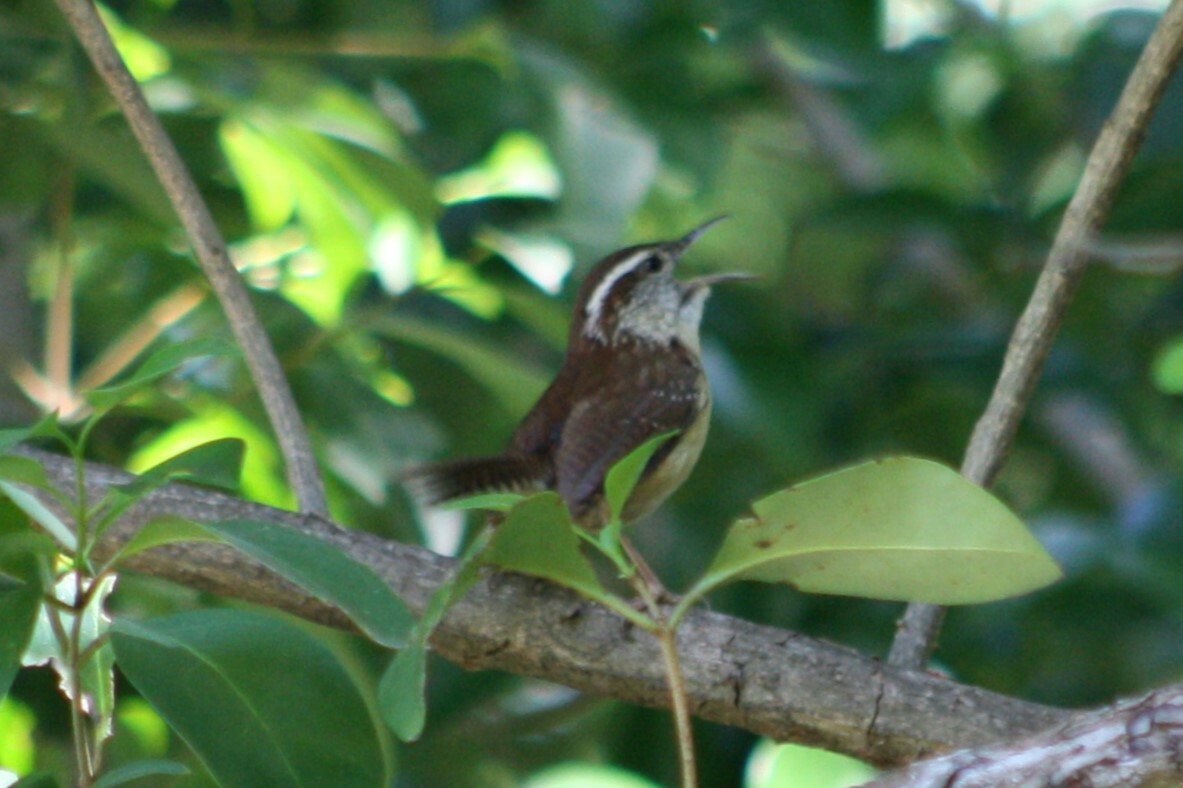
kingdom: Animalia
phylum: Chordata
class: Aves
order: Passeriformes
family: Troglodytidae
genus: Thryothorus
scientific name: Thryothorus ludovicianus
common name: Carolina wren
